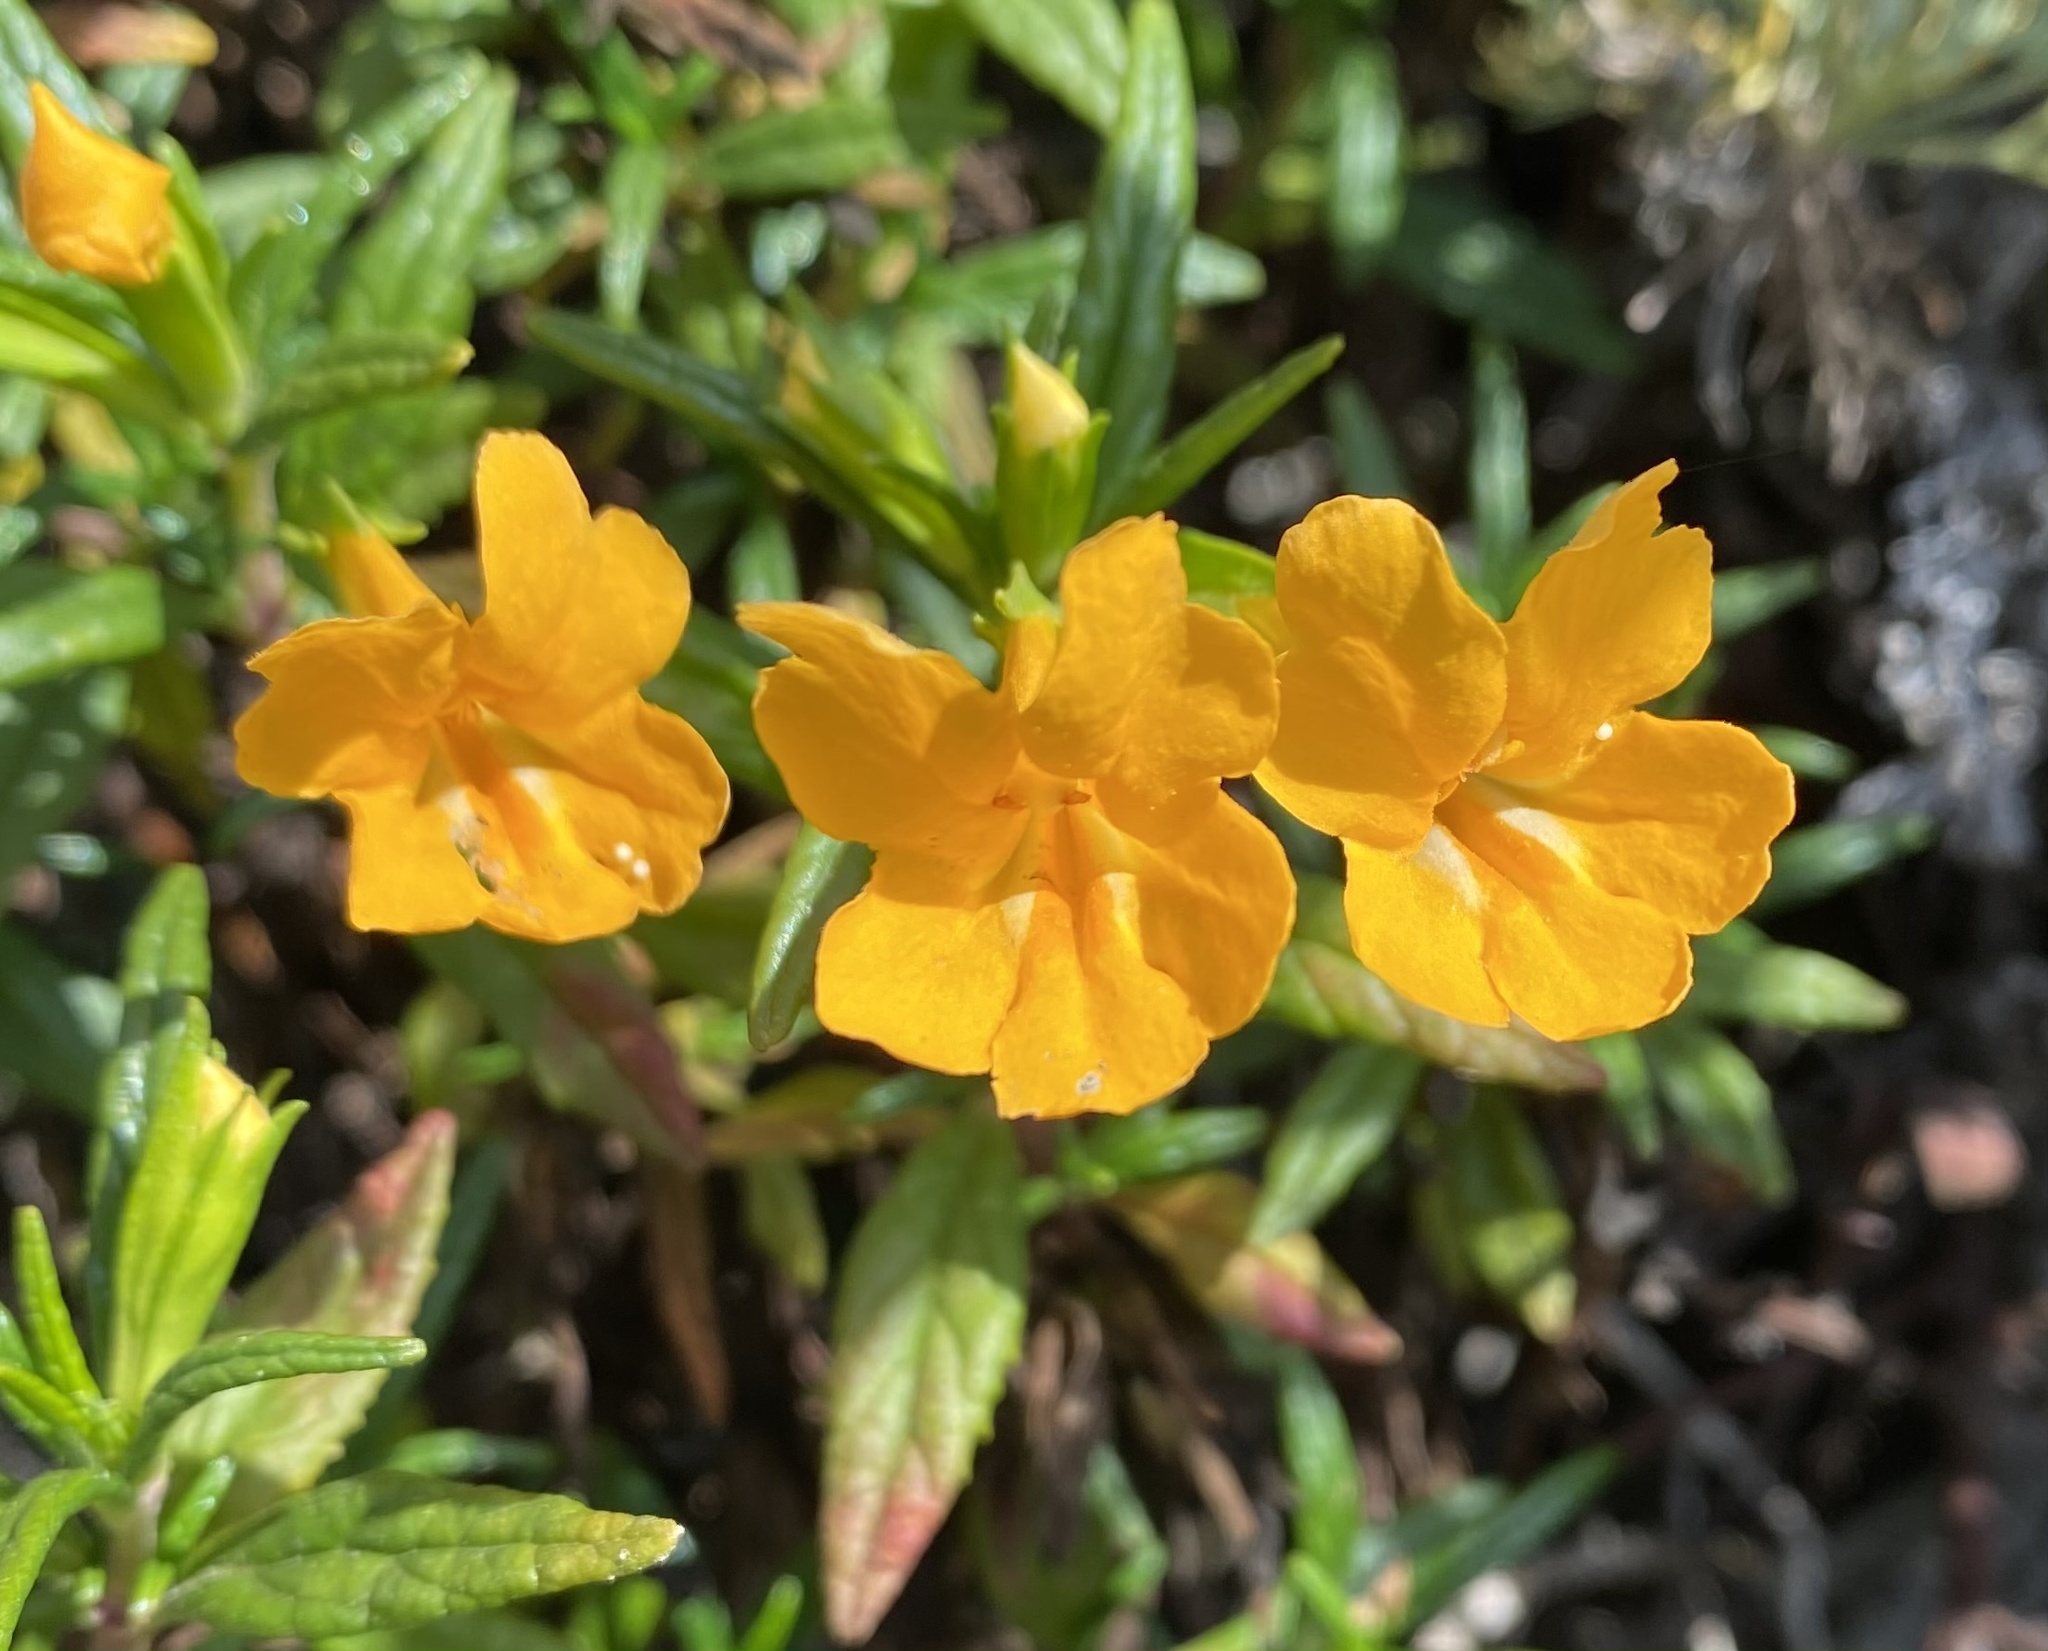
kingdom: Plantae
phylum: Tracheophyta
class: Magnoliopsida
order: Lamiales
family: Phrymaceae
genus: Diplacus
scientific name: Diplacus aurantiacus
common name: Bush monkey-flower
